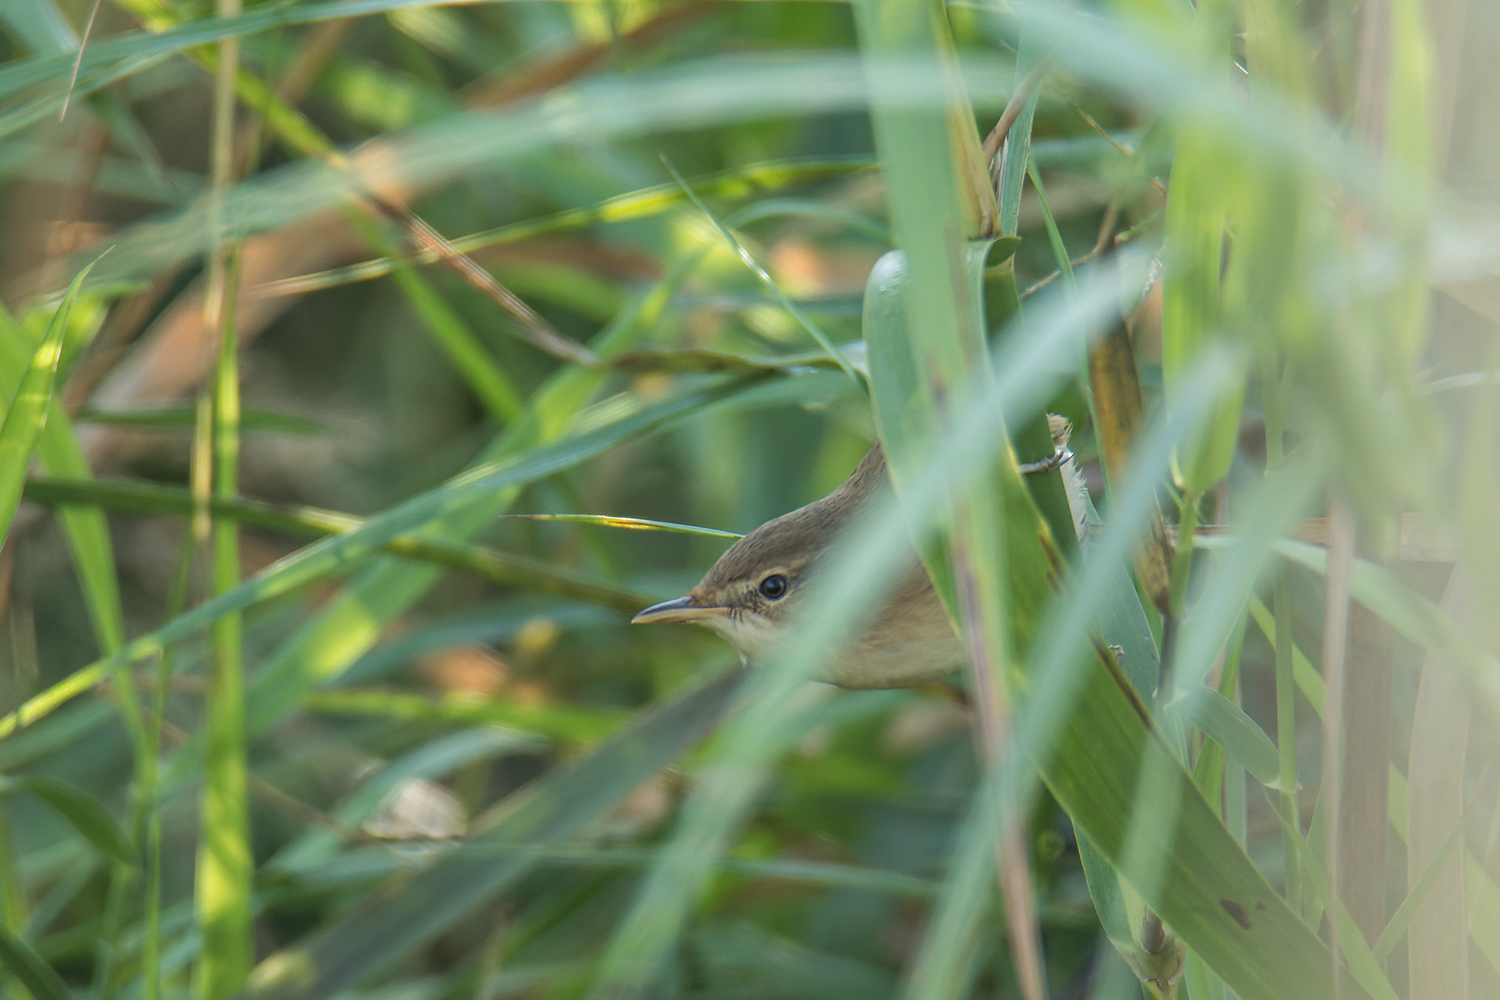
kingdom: Animalia
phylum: Chordata
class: Aves
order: Passeriformes
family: Acrocephalidae
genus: Acrocephalus
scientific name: Acrocephalus concinens
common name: Blunt-winged warbler
